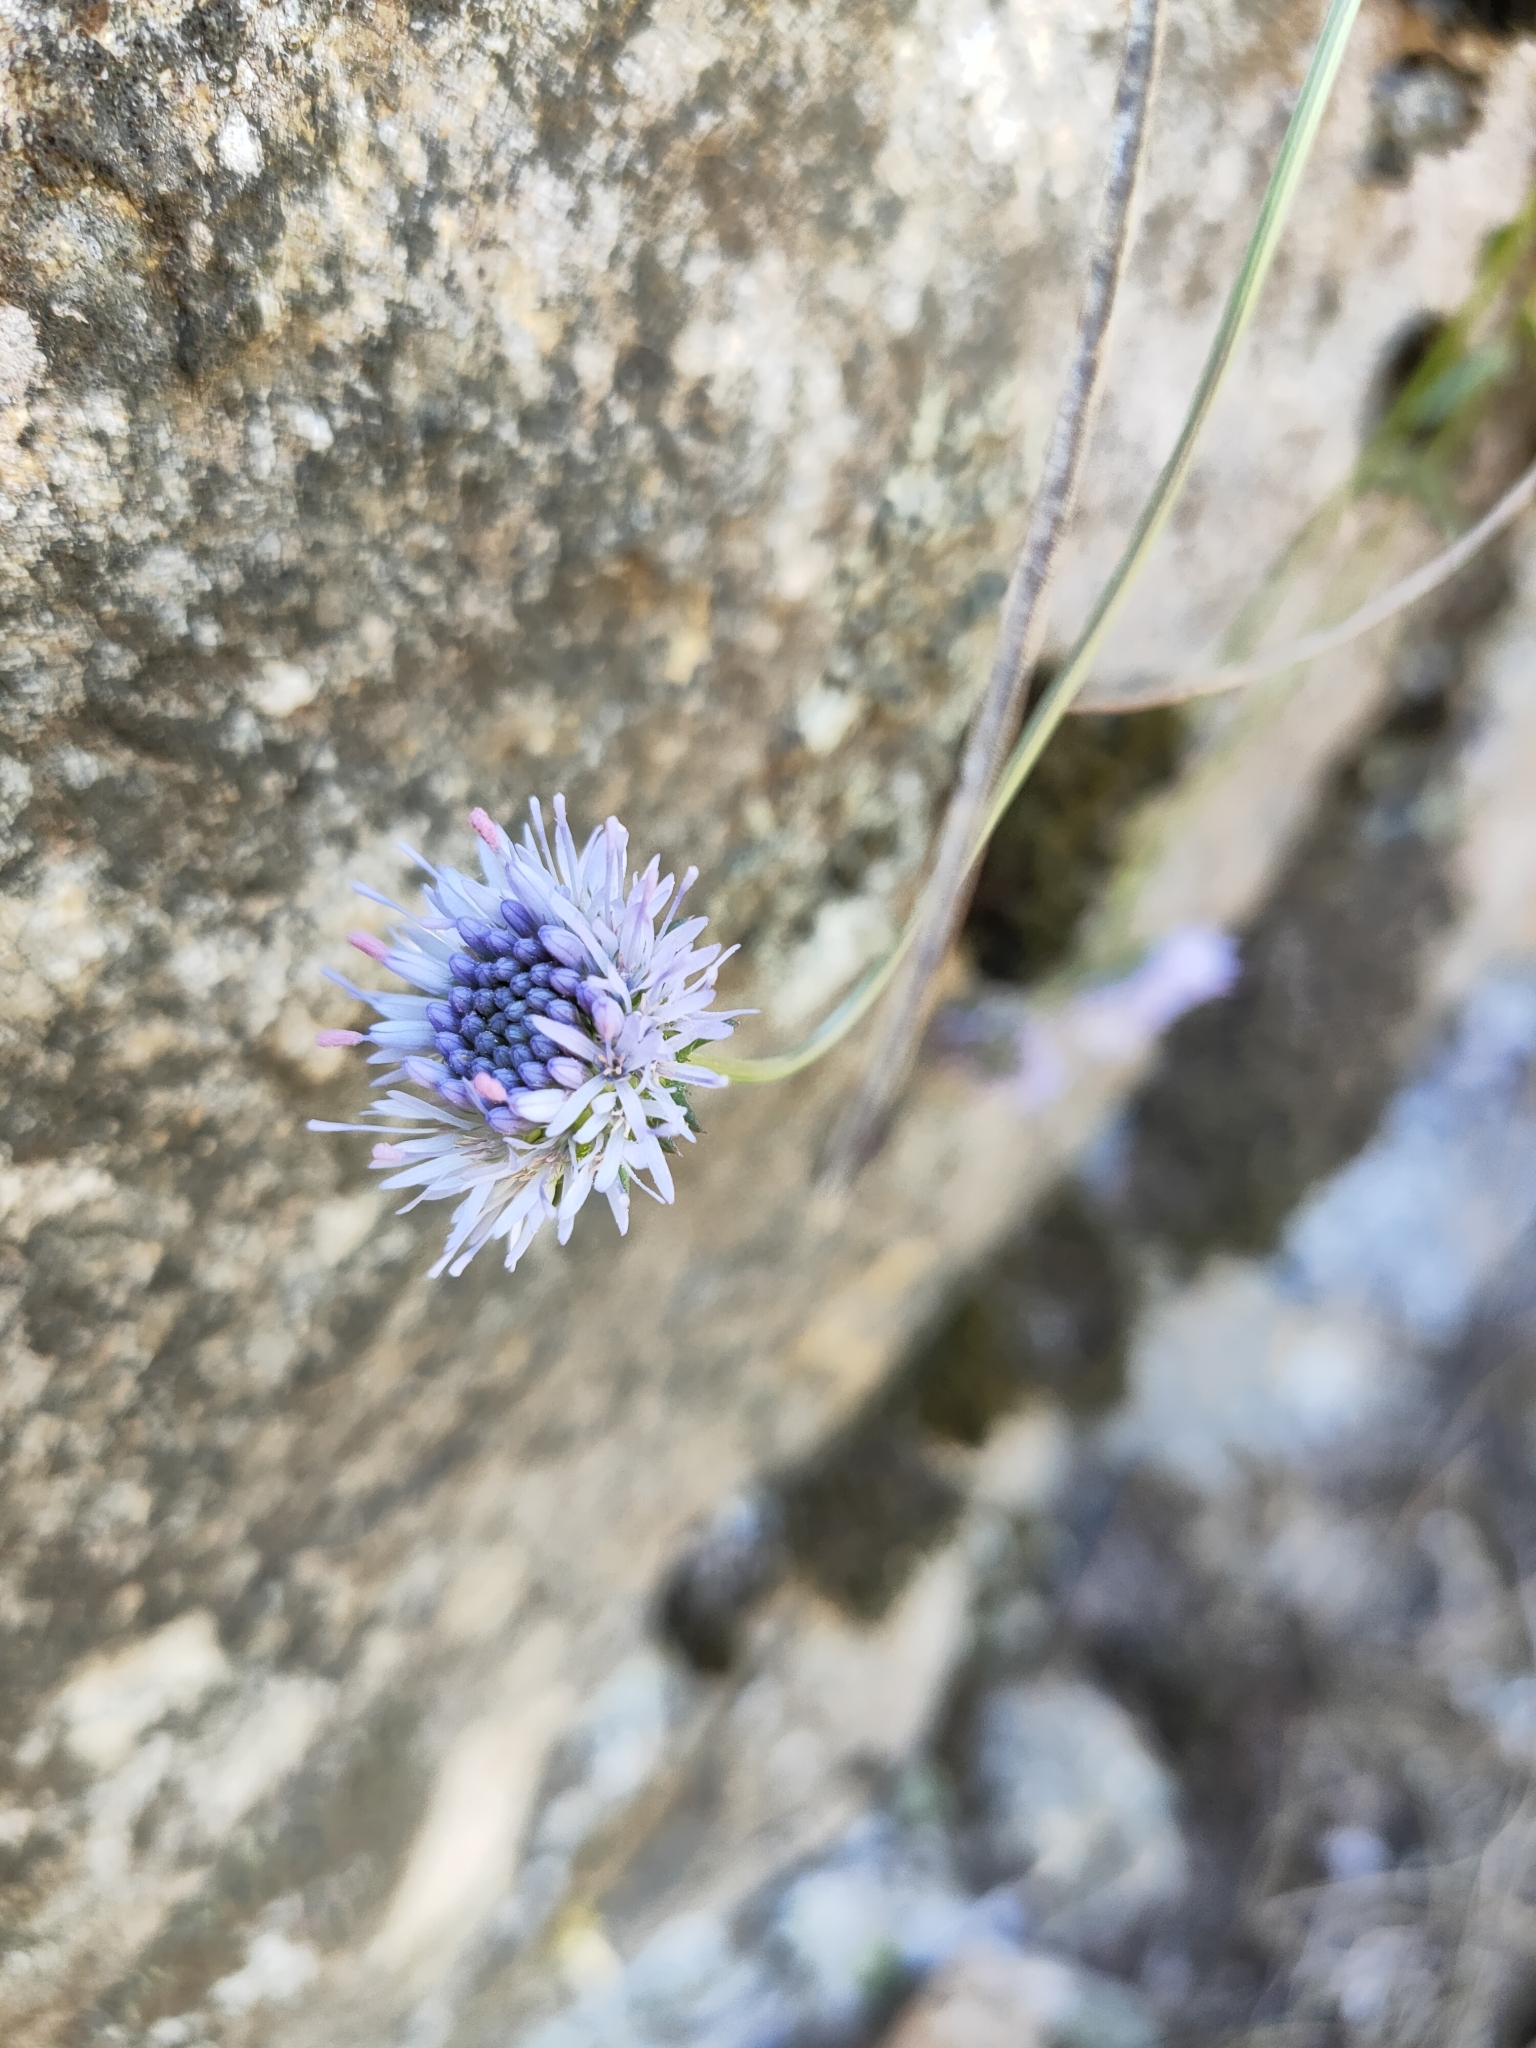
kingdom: Plantae
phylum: Tracheophyta
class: Magnoliopsida
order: Asterales
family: Campanulaceae
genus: Jasione
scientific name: Jasione montana
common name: Sheep's-bit
